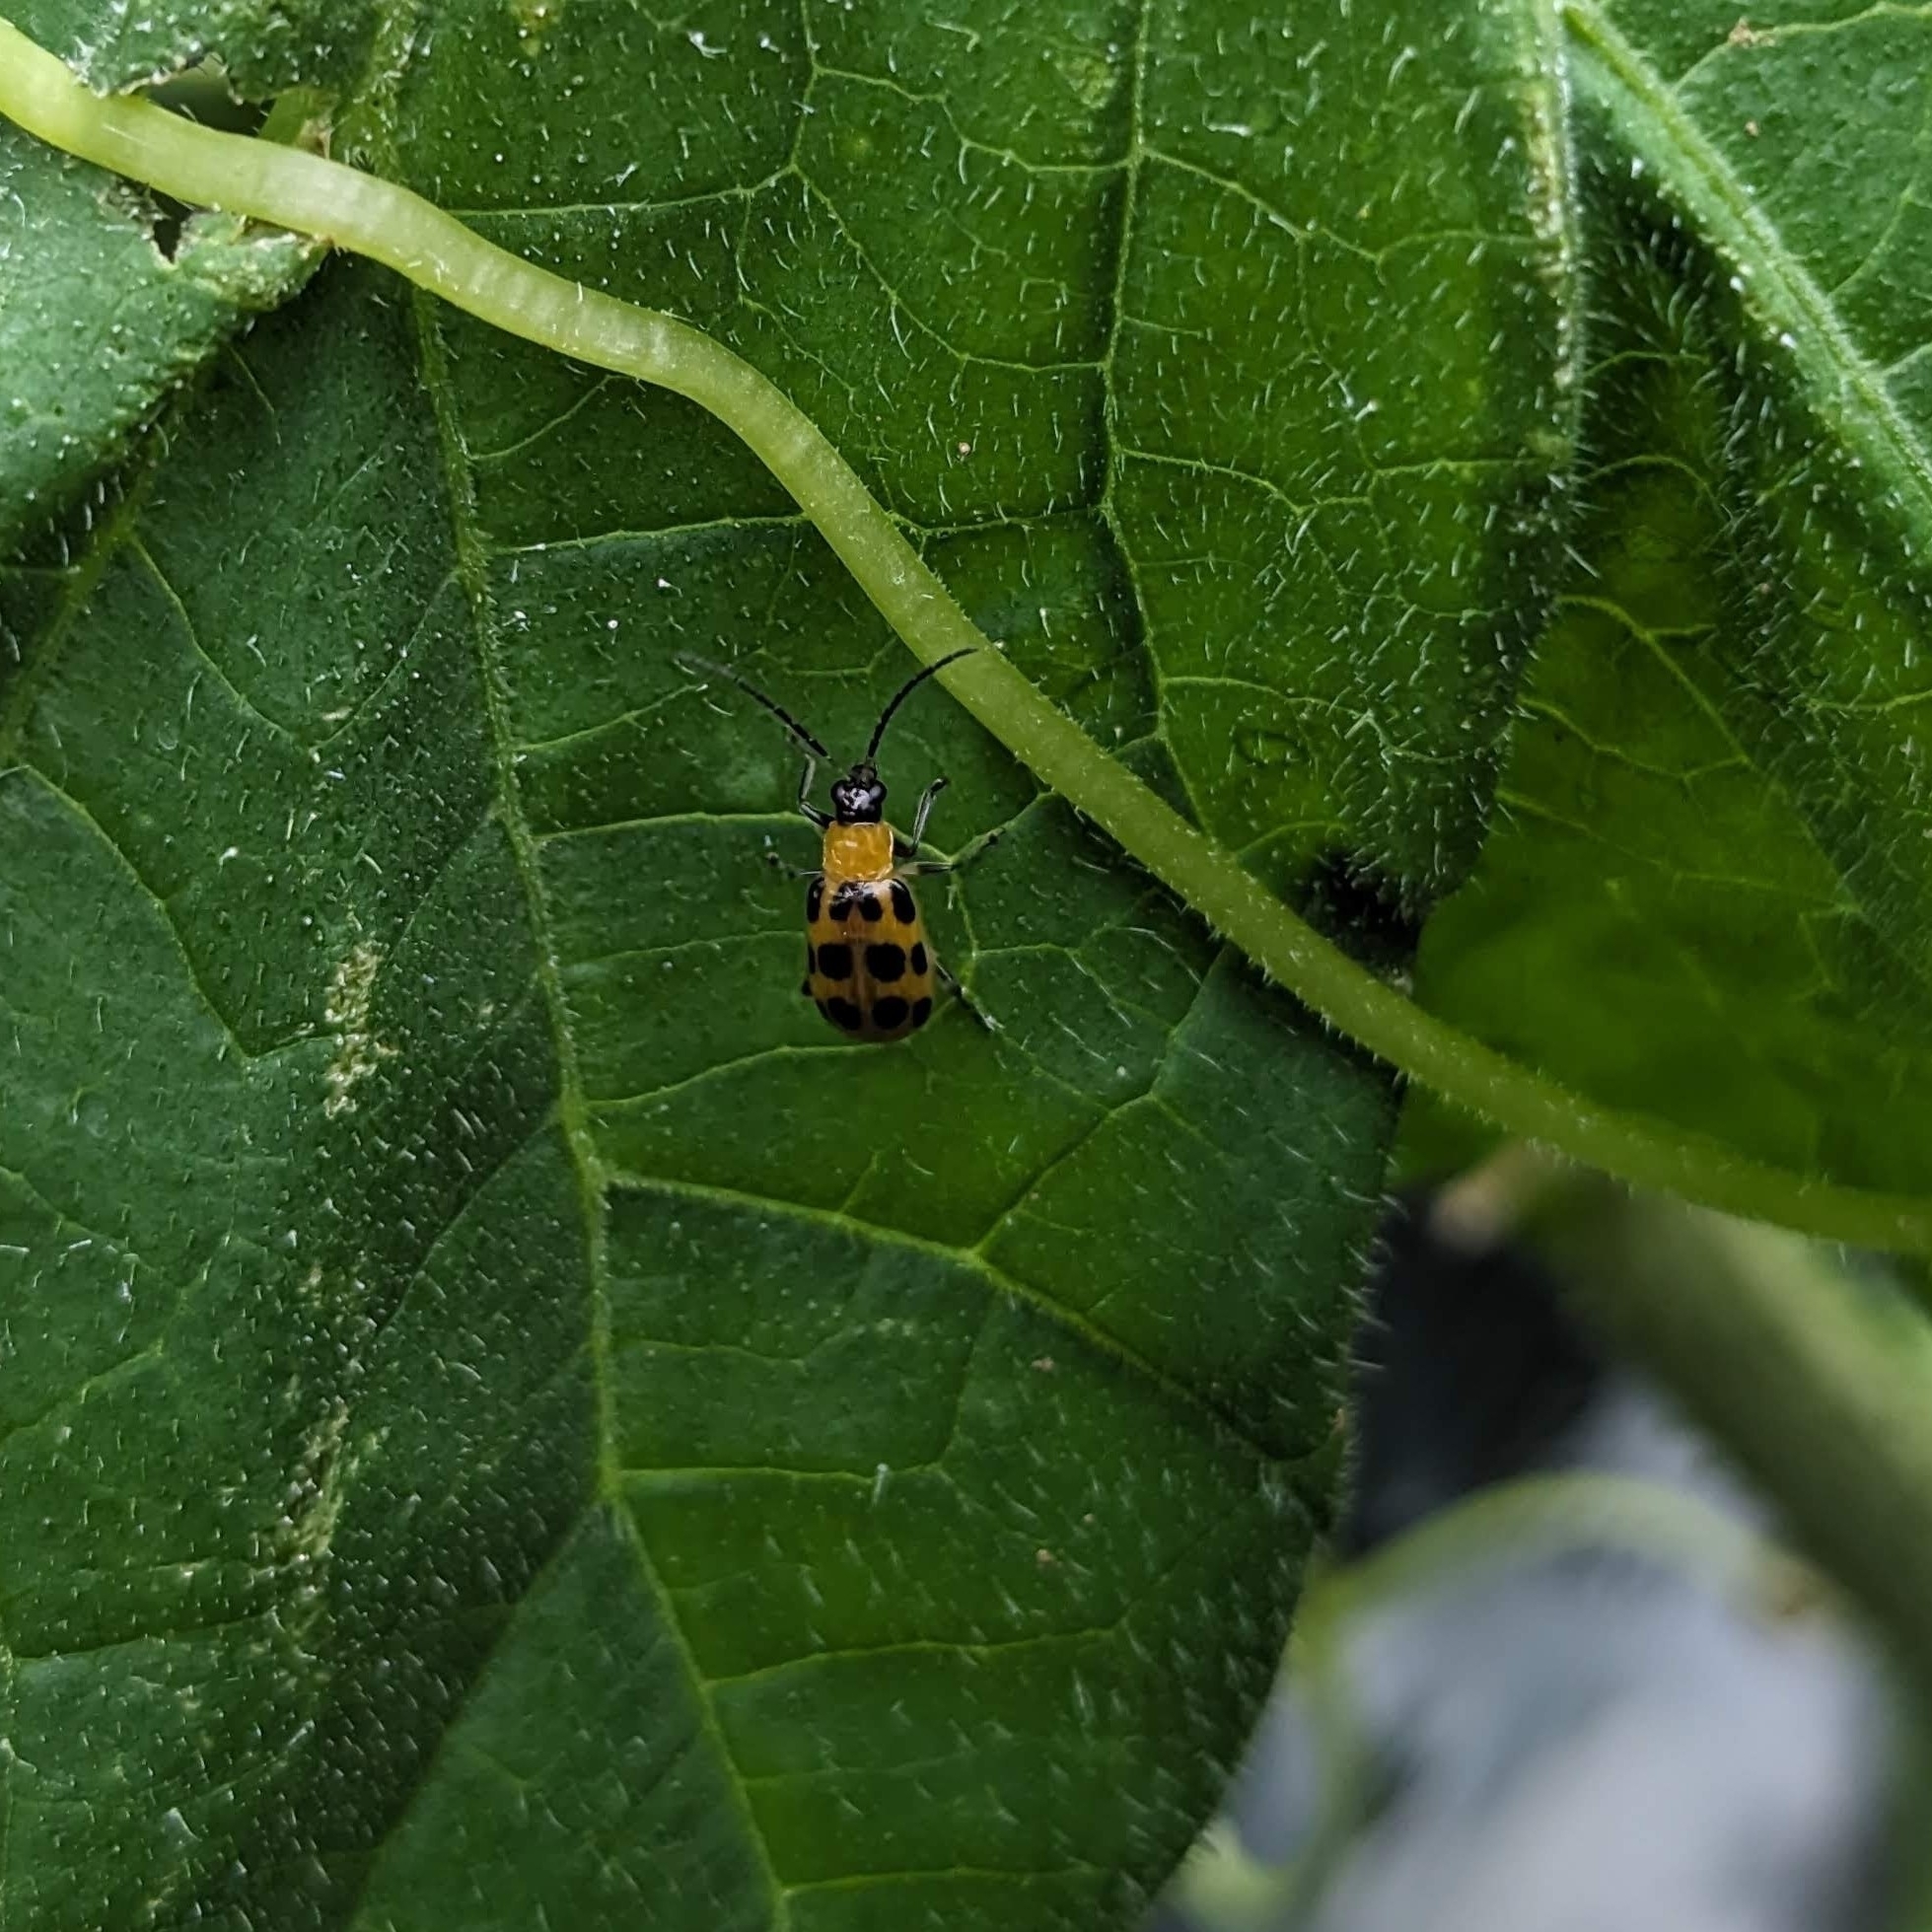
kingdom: Animalia
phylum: Arthropoda
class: Insecta
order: Coleoptera
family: Chrysomelidae
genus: Diabrotica
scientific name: Diabrotica undecimpunctata
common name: Spotted cucumber beetle
